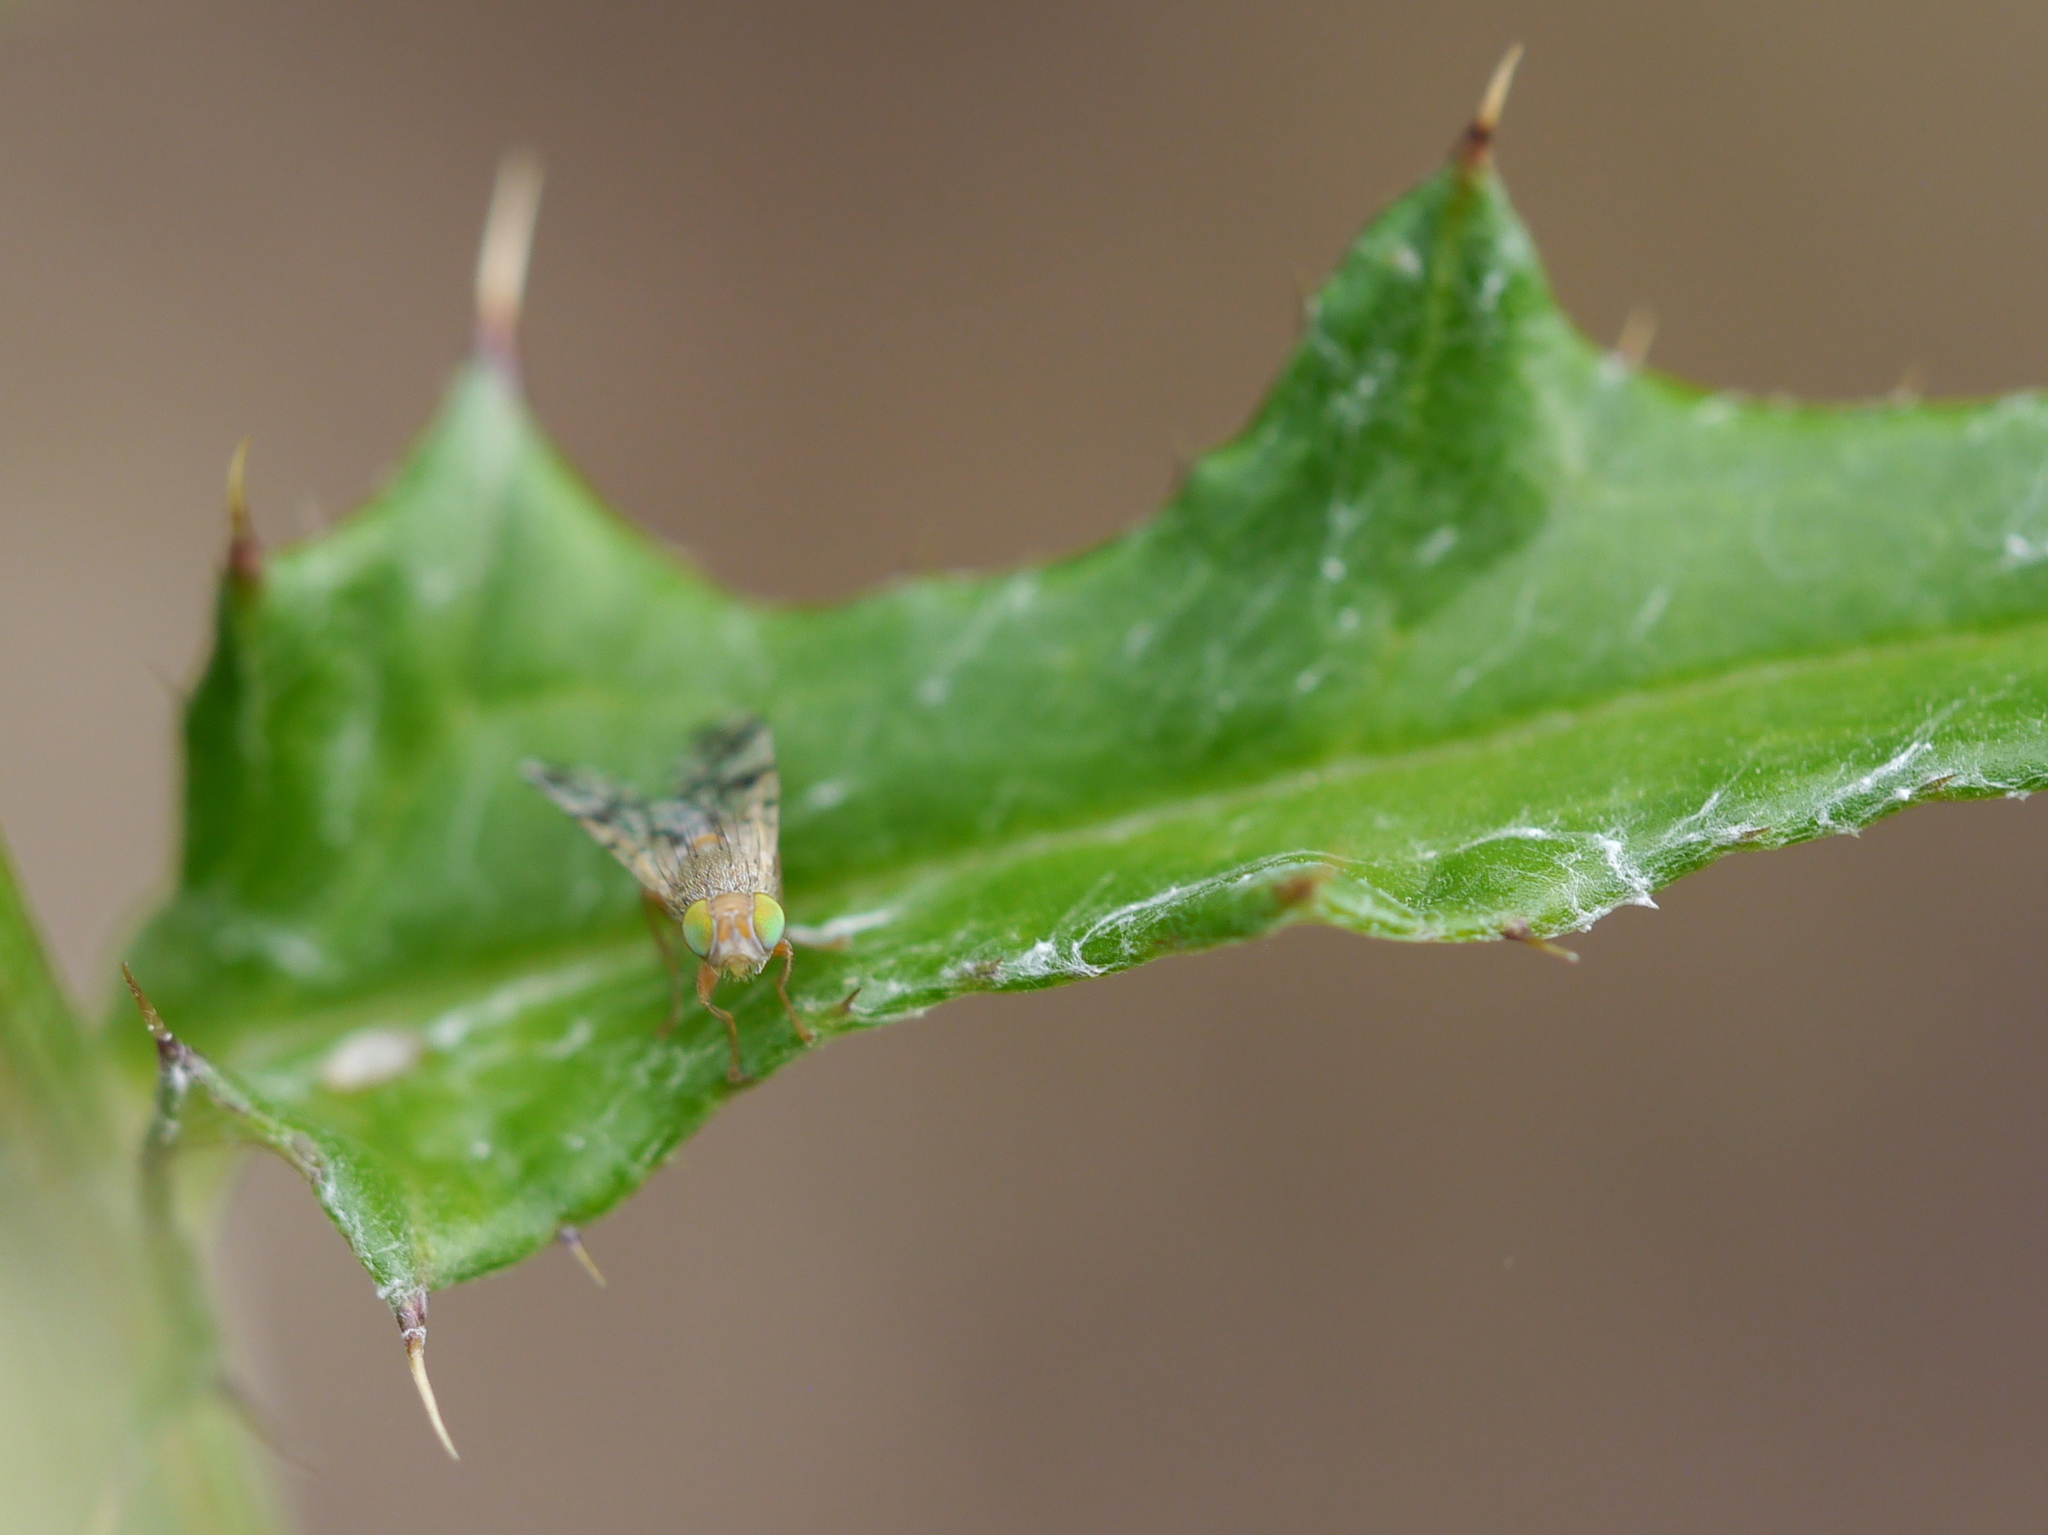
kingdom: Animalia
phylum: Arthropoda
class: Insecta
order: Diptera
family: Tephritidae
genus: Neotephritis
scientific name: Neotephritis finalis
